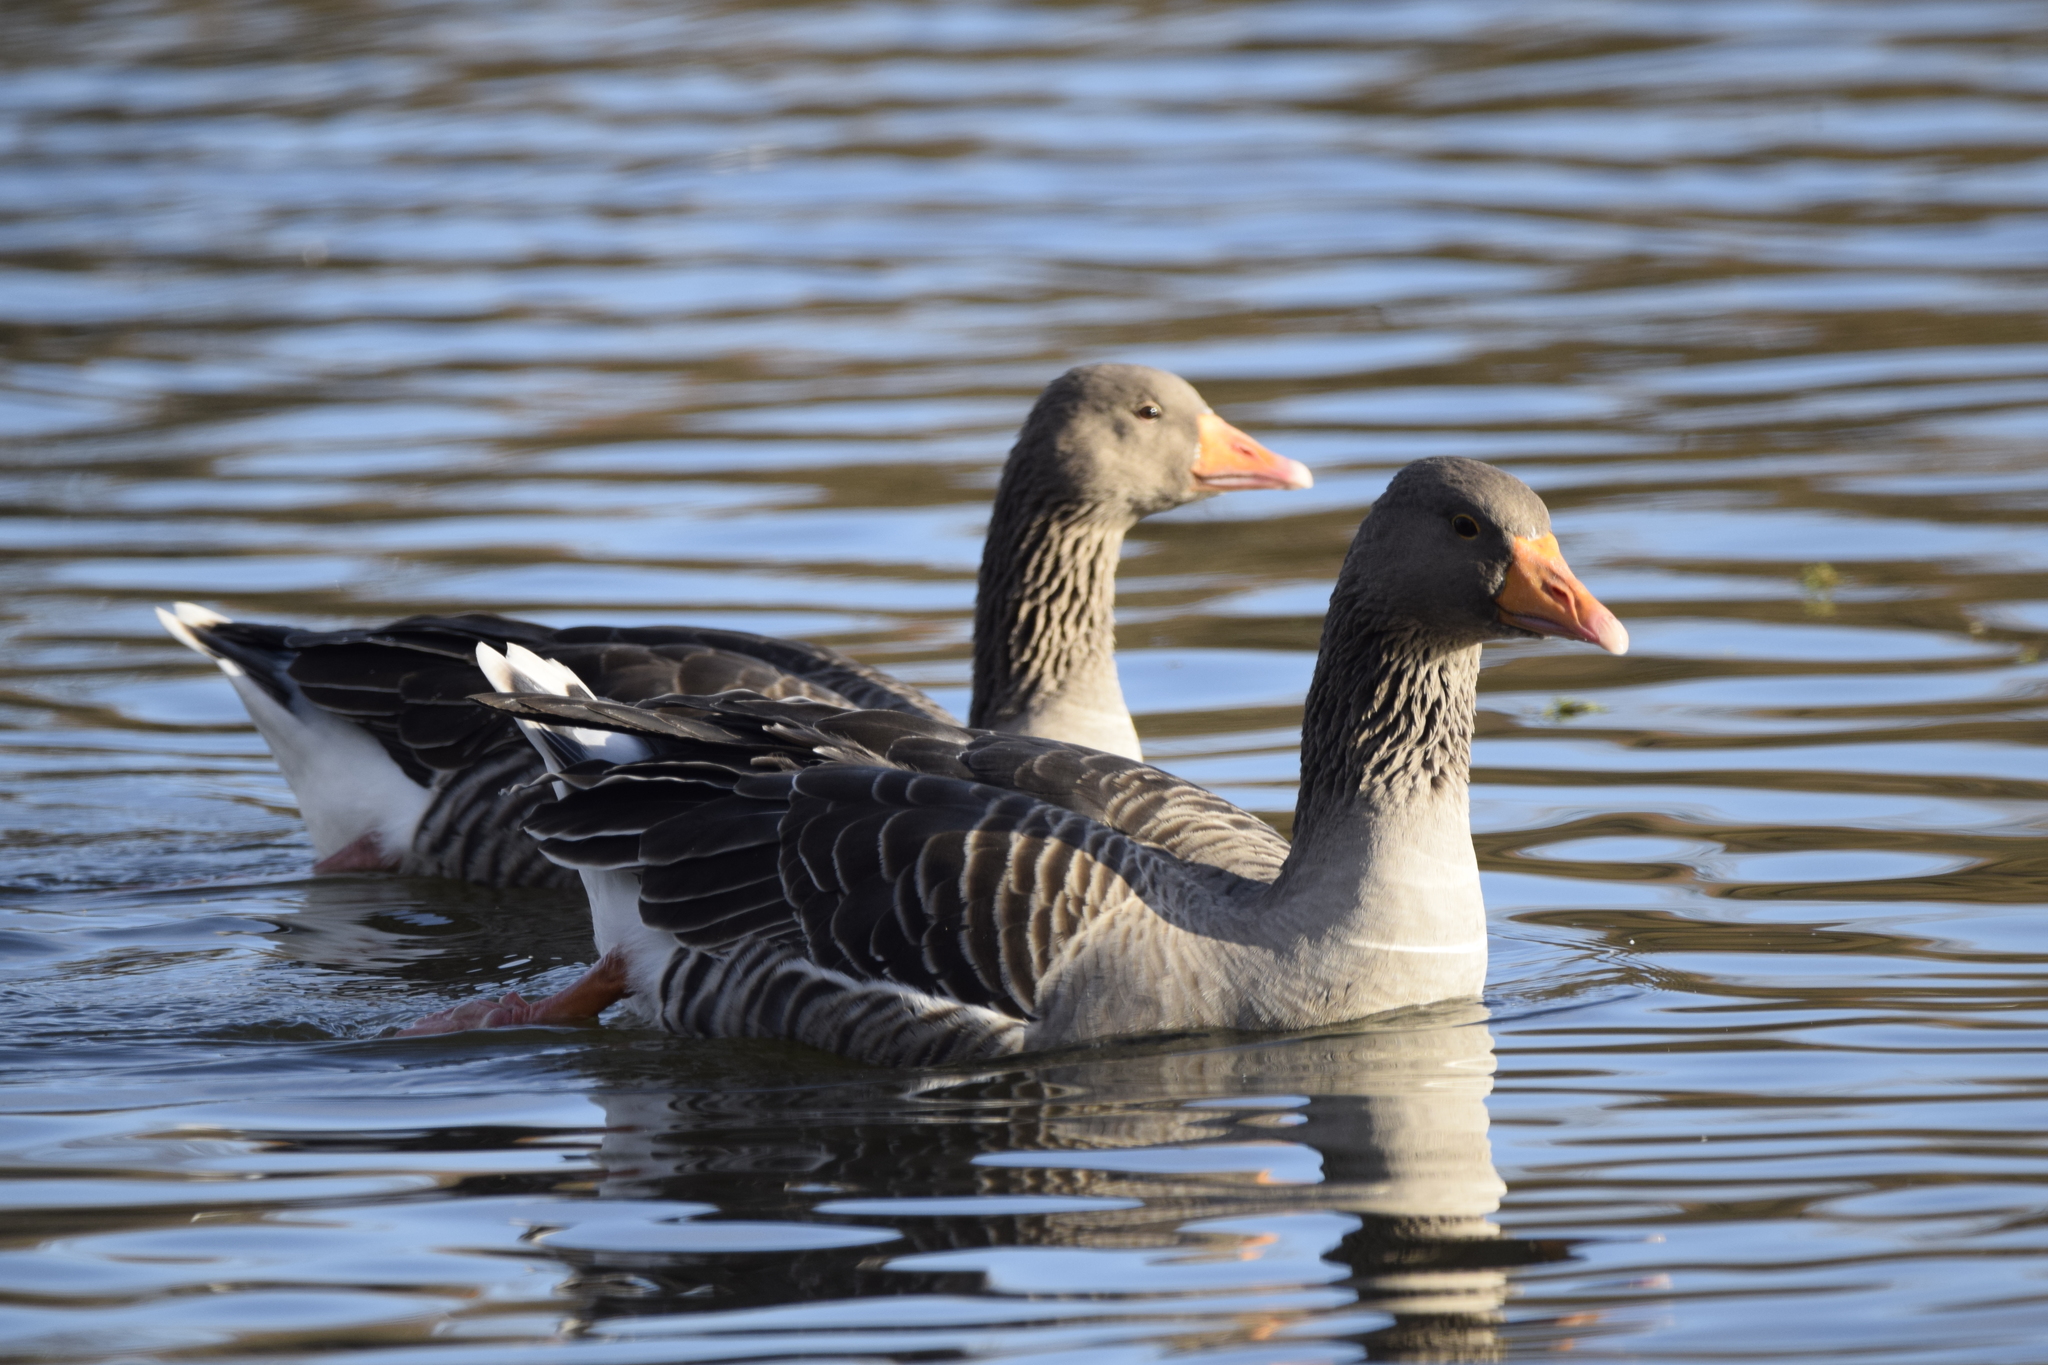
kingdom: Animalia
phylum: Chordata
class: Aves
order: Anseriformes
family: Anatidae
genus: Anser
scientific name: Anser anser
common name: Greylag goose
